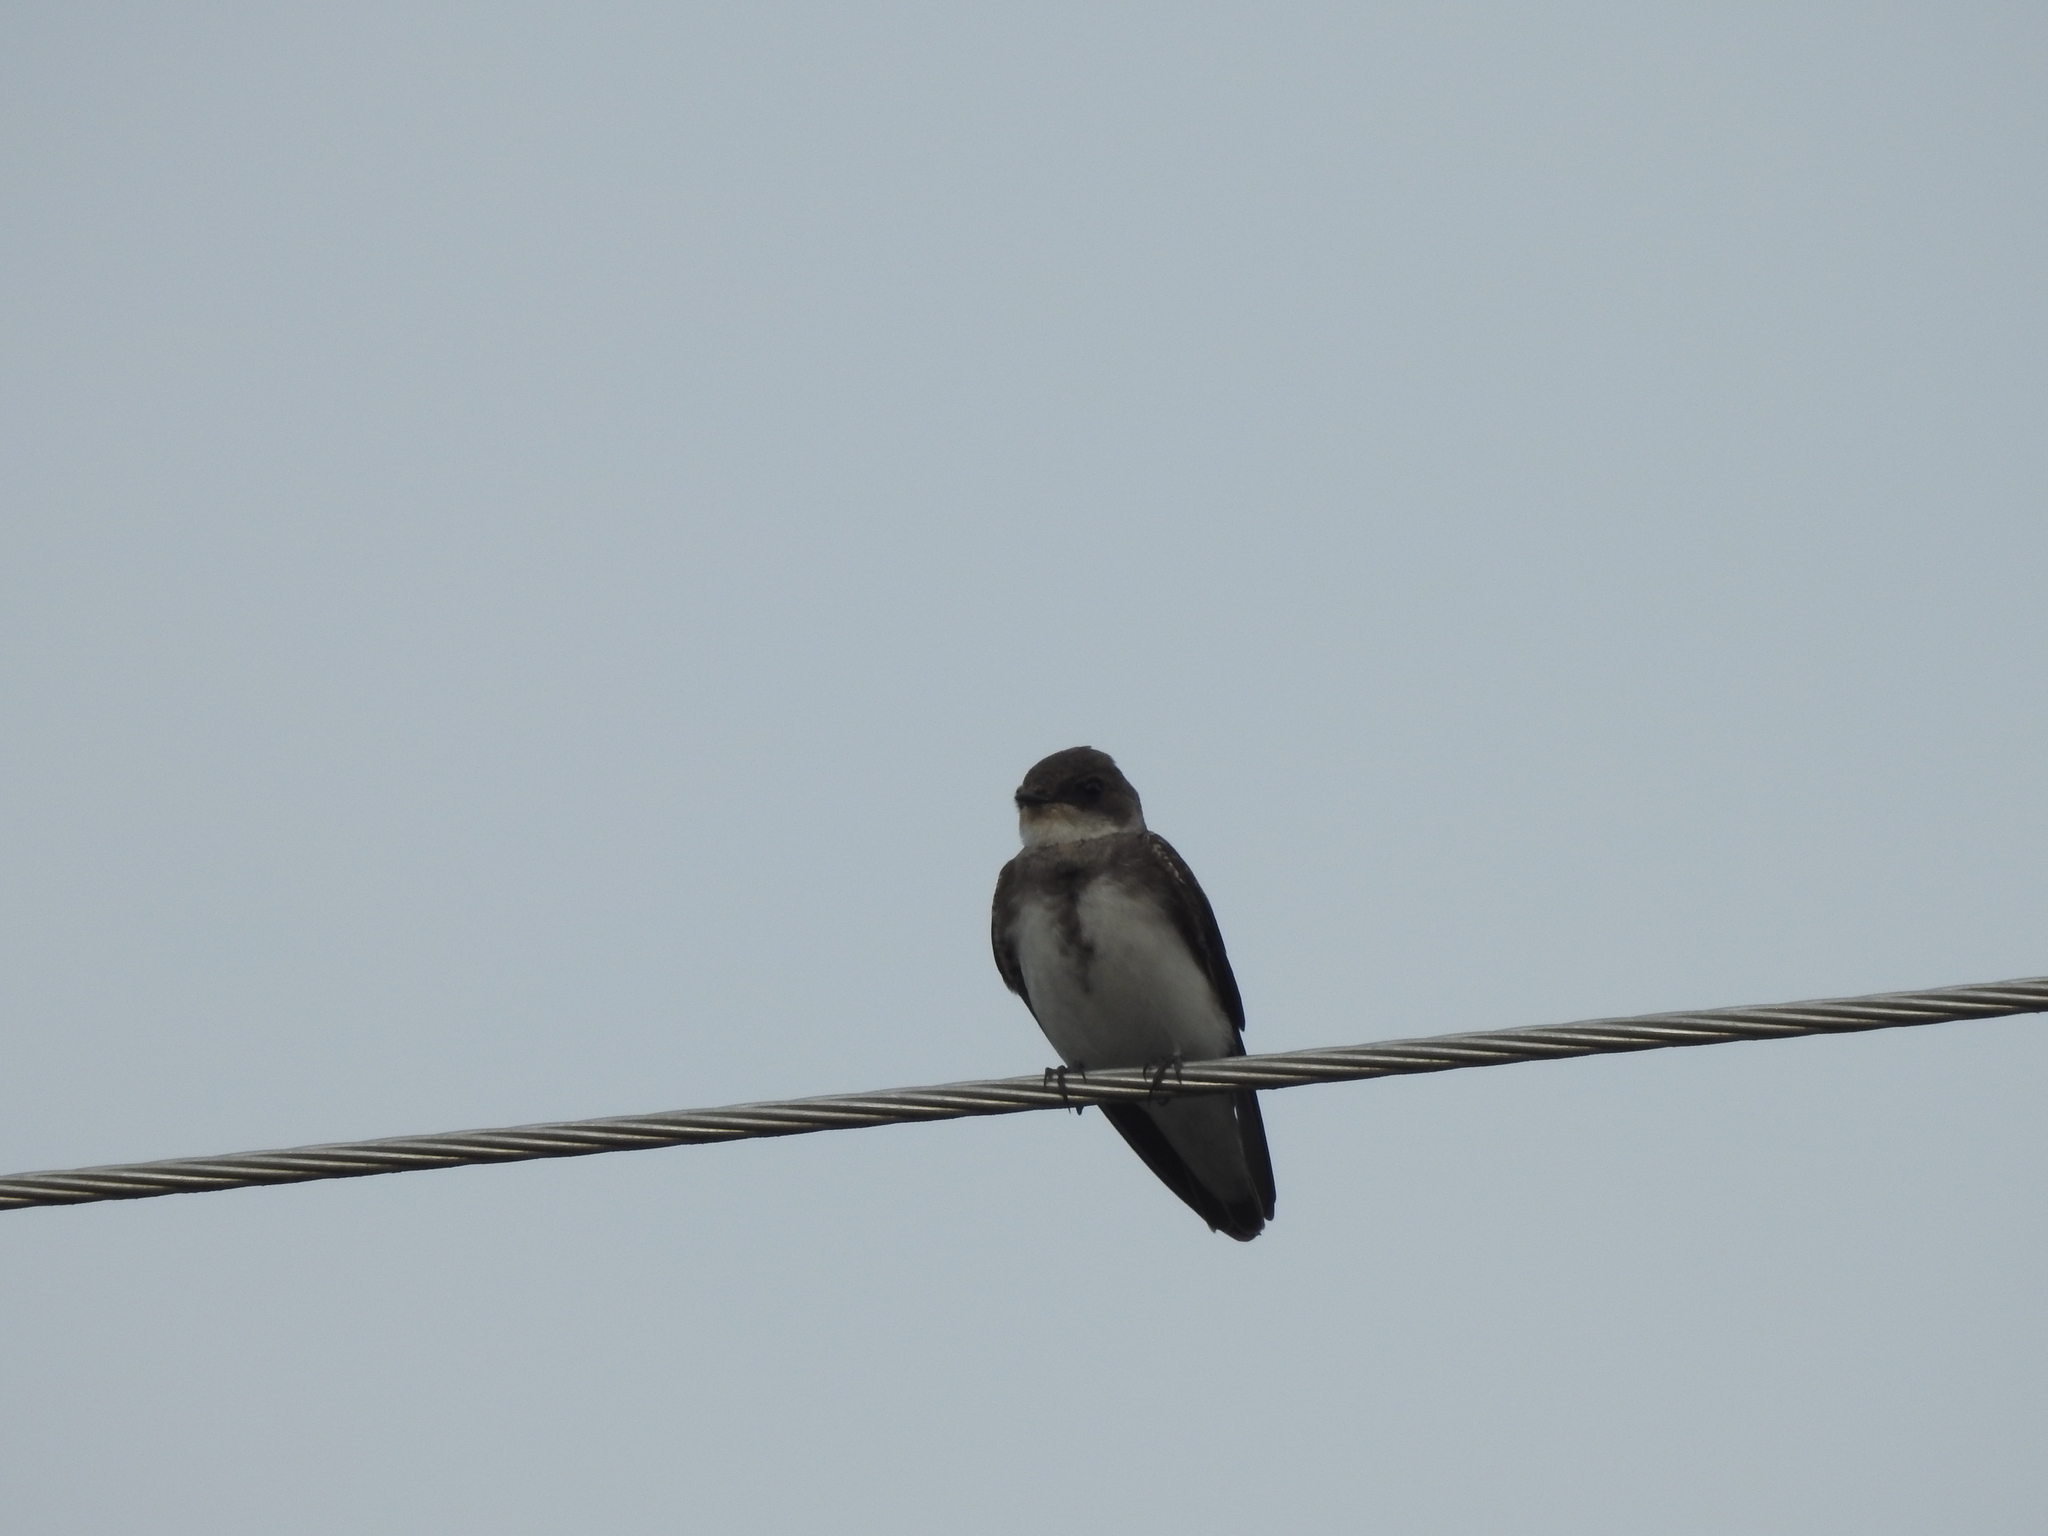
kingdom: Animalia
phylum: Chordata
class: Aves
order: Passeriformes
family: Hirundinidae
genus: Riparia
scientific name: Riparia riparia
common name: Sand martin
